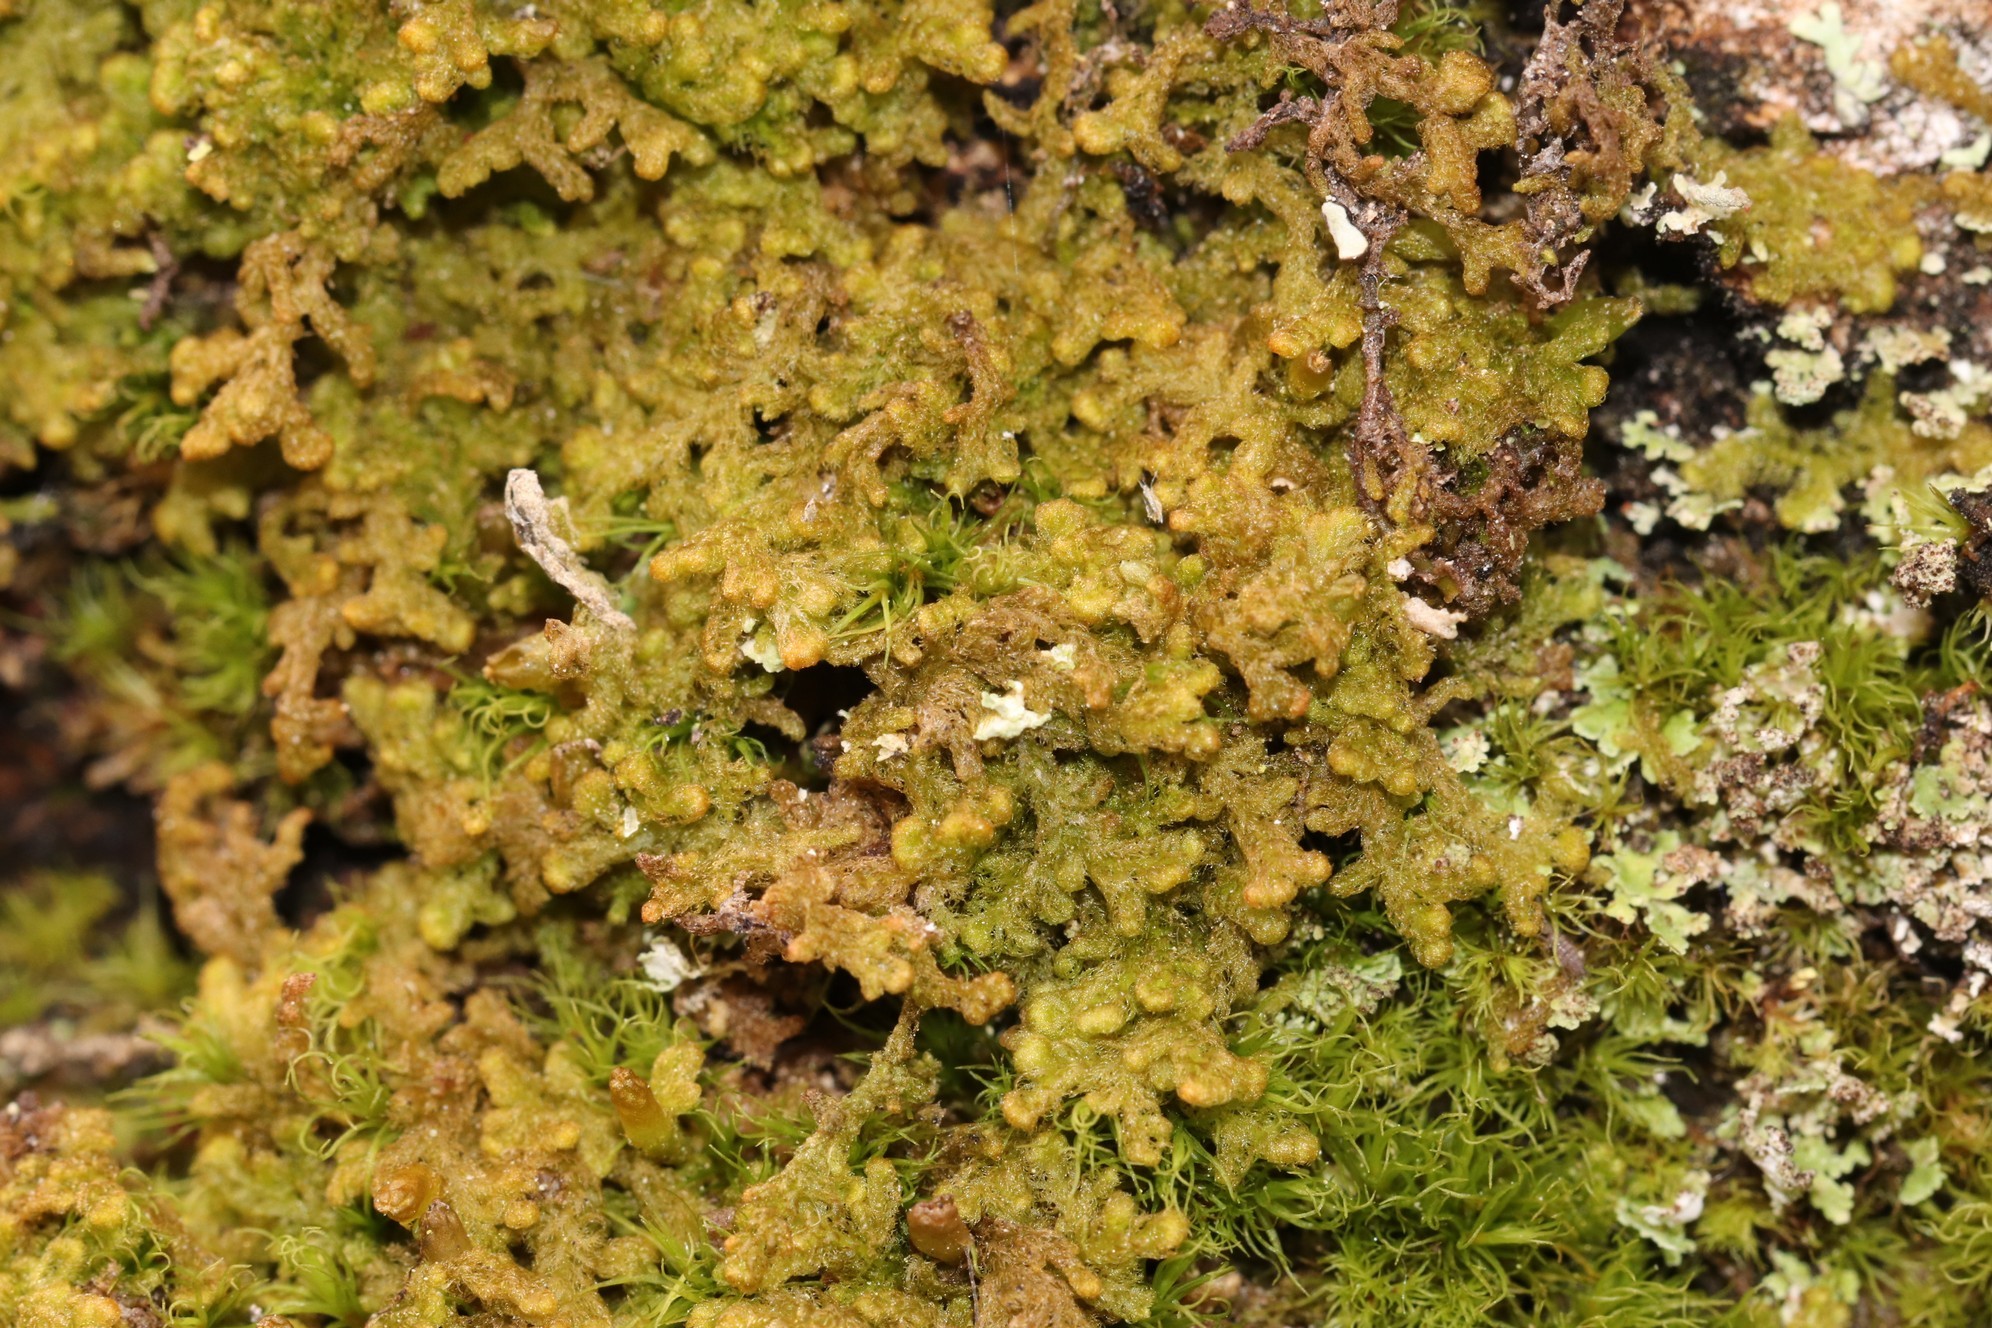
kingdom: Plantae
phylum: Marchantiophyta
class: Jungermanniopsida
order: Ptilidiales
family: Ptilidiaceae
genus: Ptilidium
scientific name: Ptilidium pulcherrimum
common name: Tree fringewort
